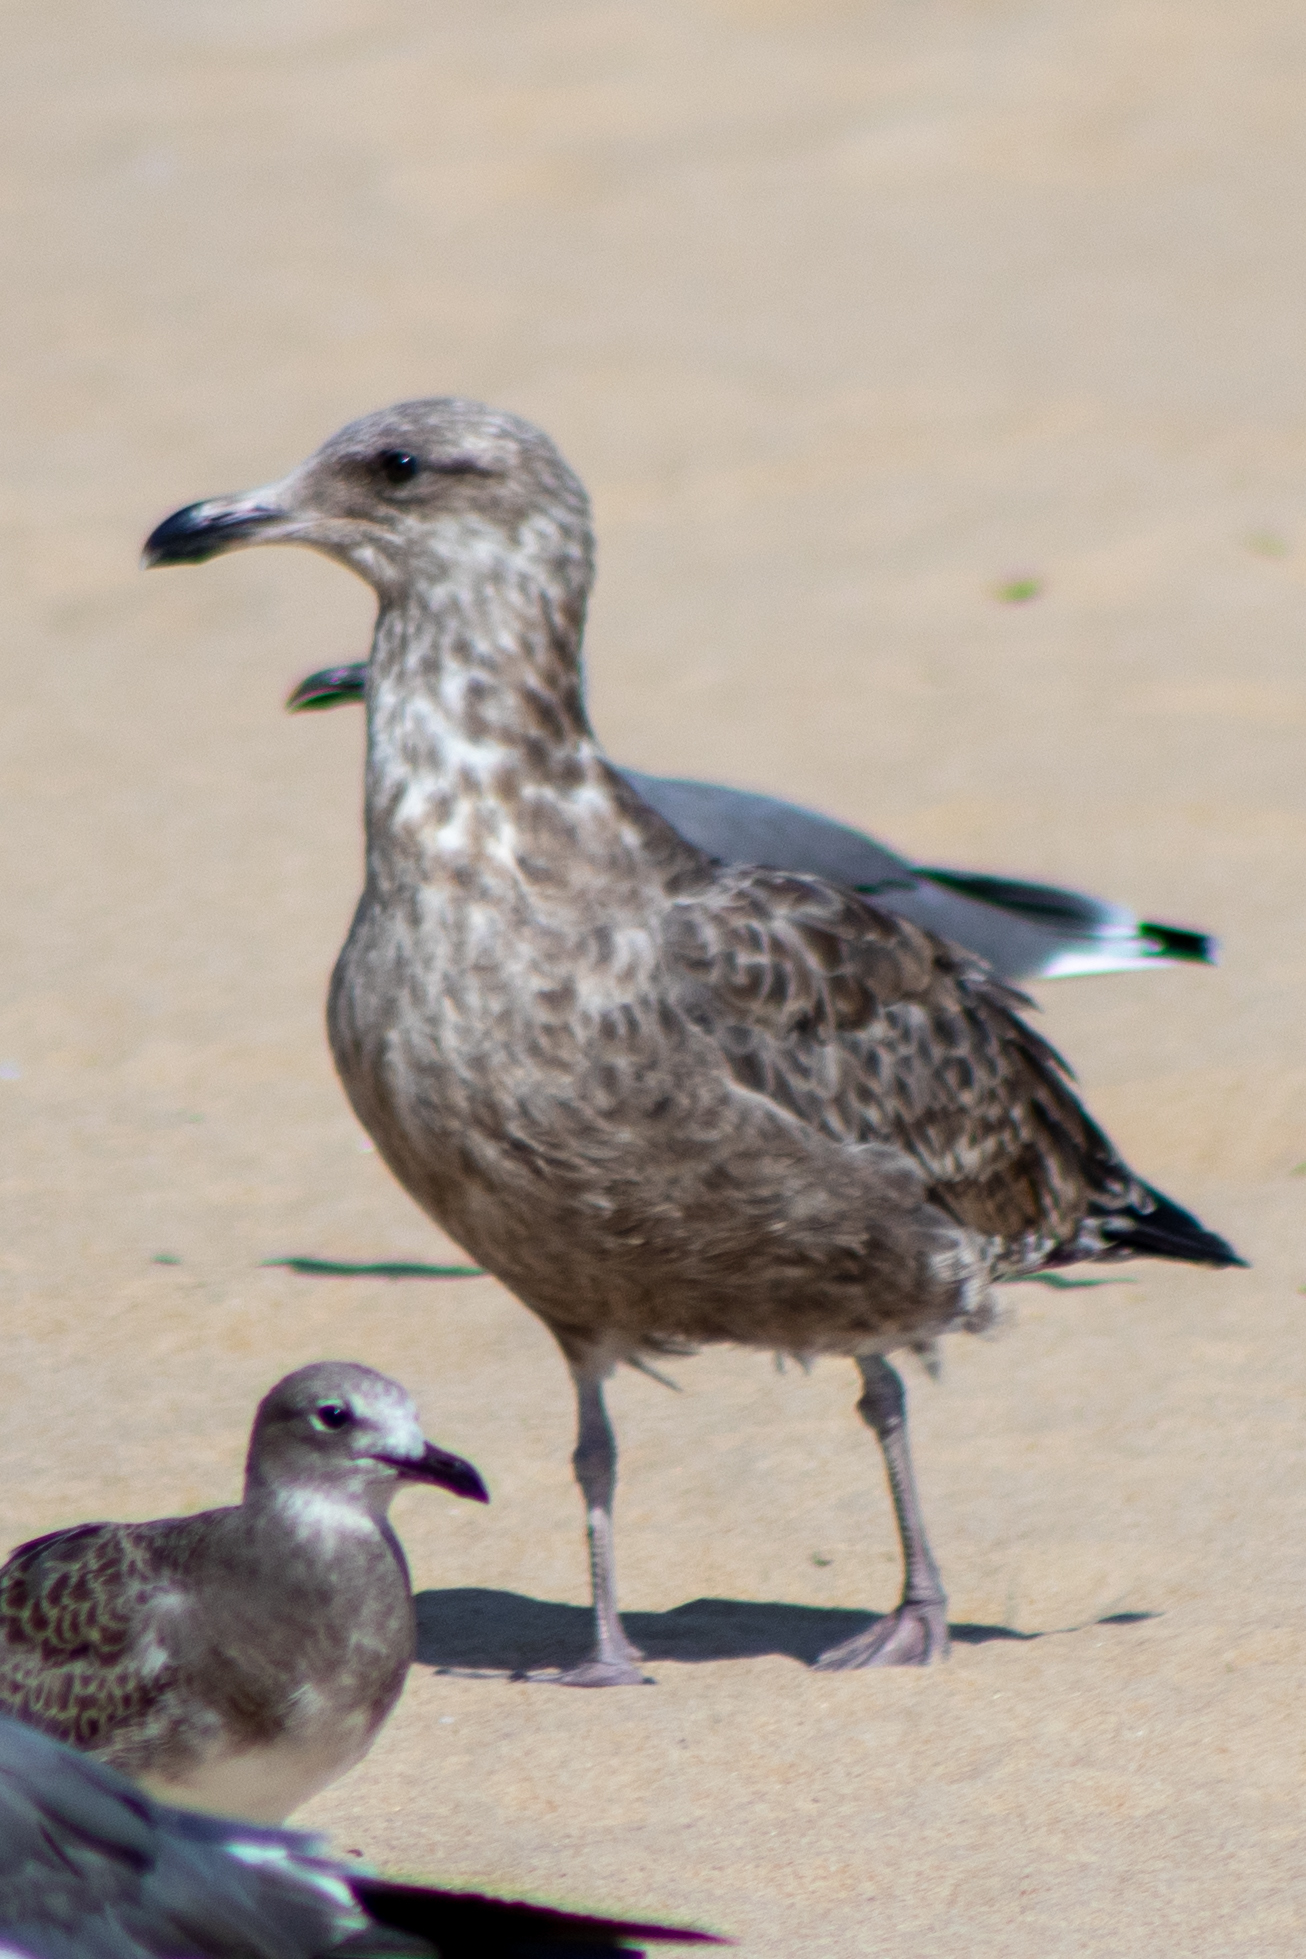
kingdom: Animalia
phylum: Chordata
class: Aves
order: Charadriiformes
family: Laridae
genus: Larus
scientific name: Larus argentatus
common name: Herring gull
